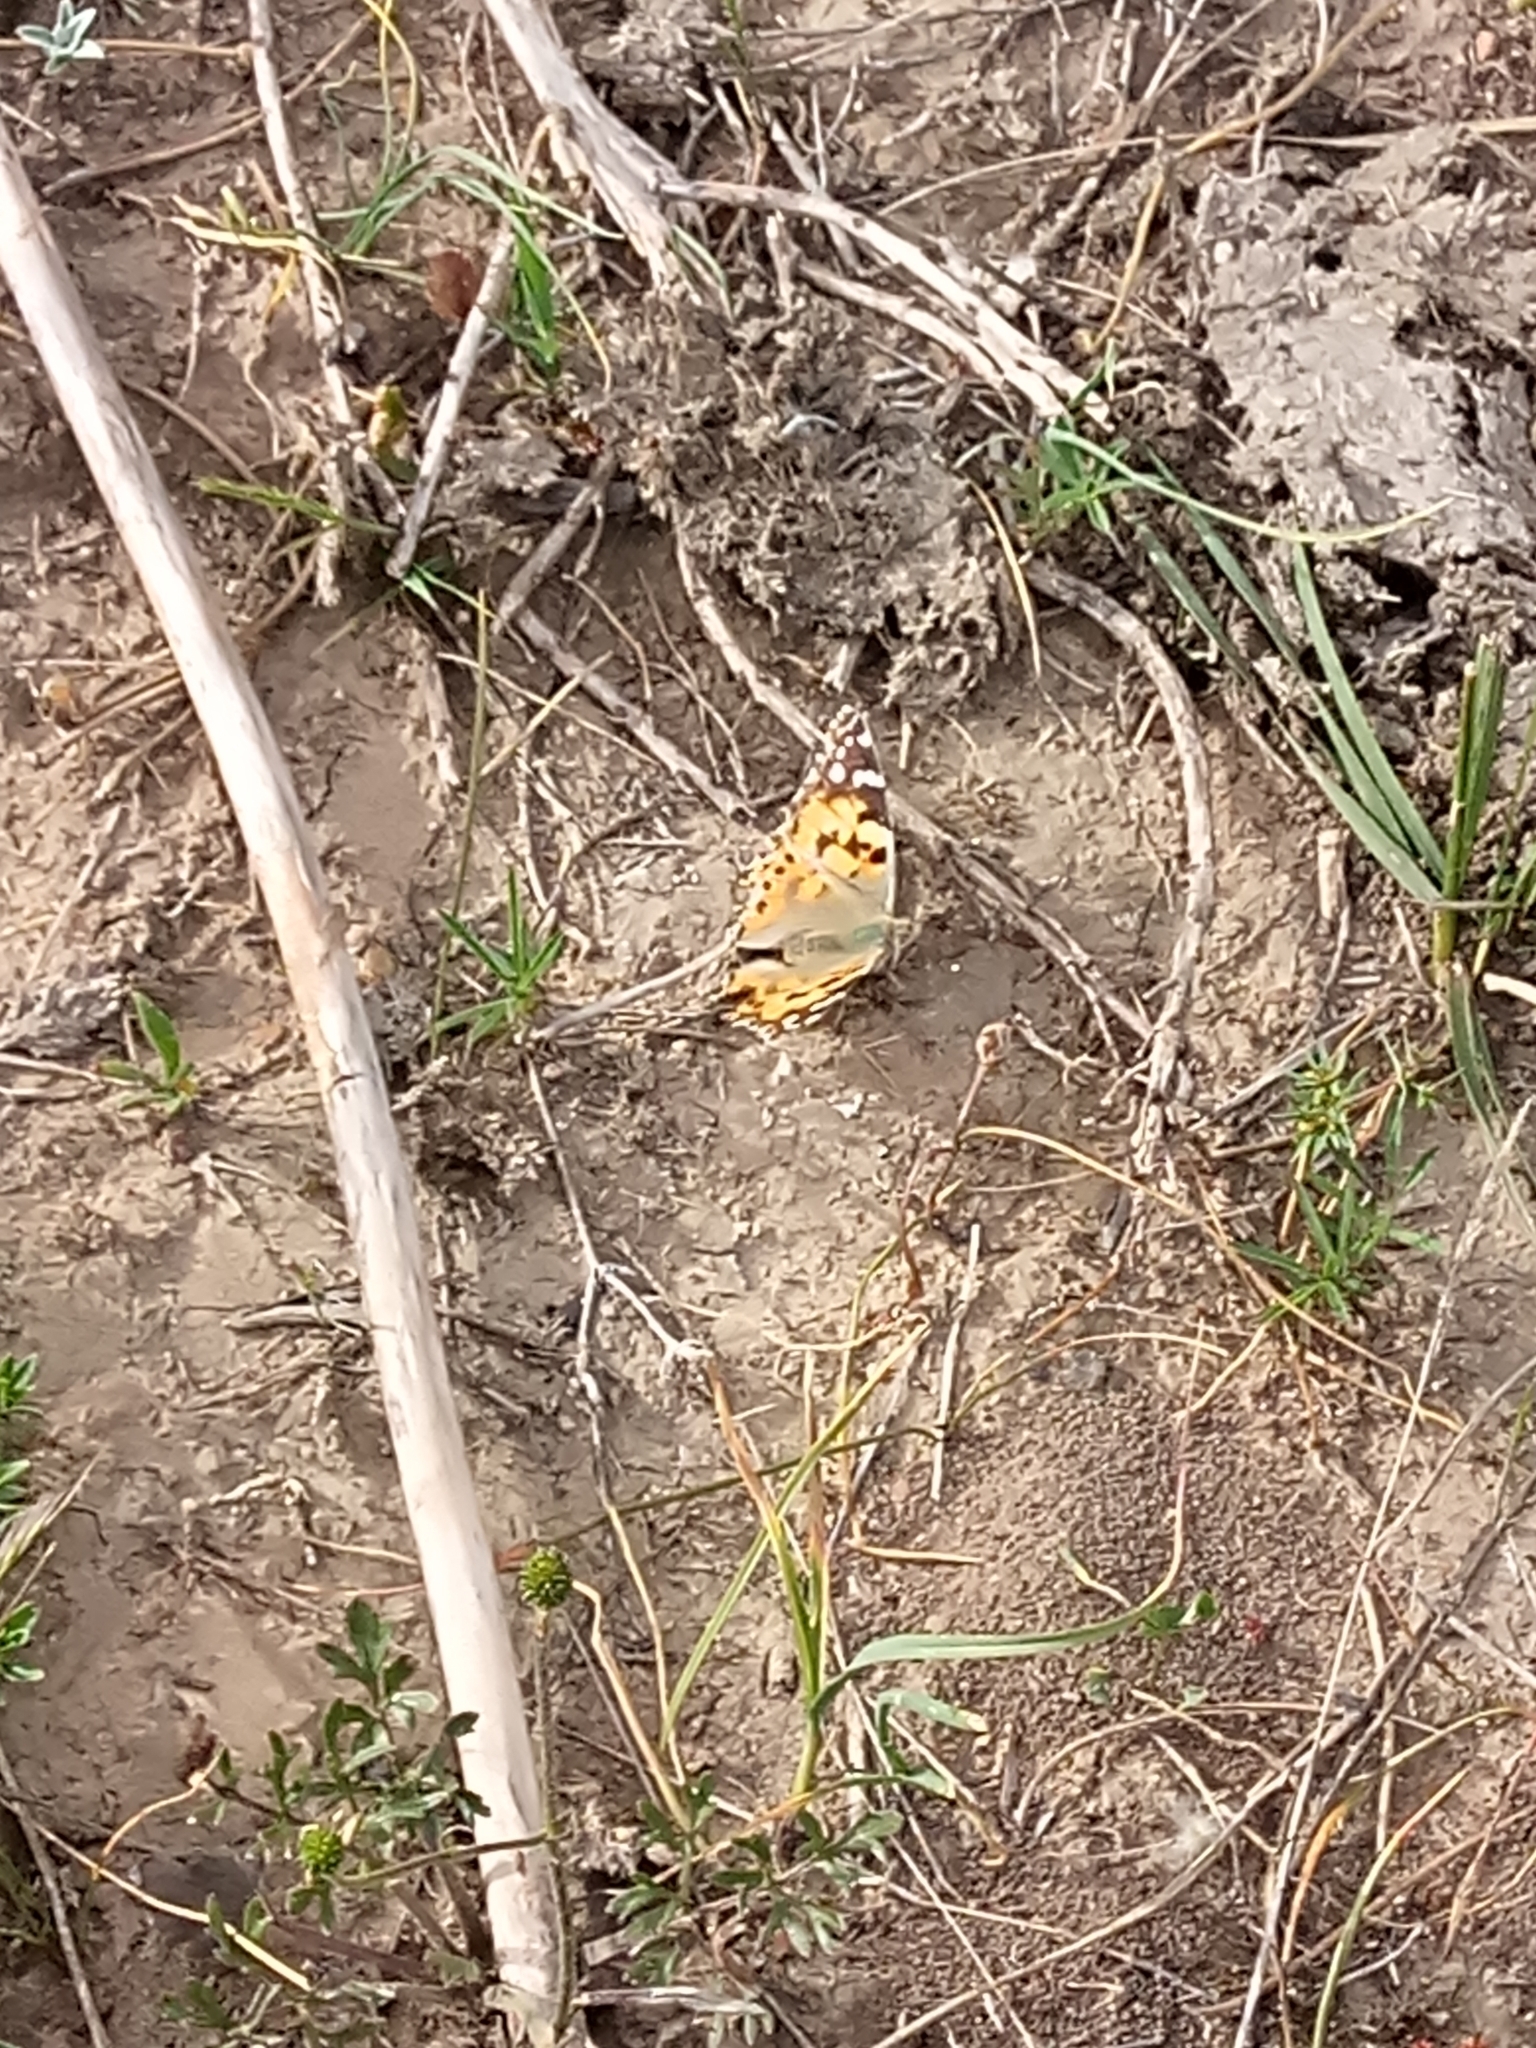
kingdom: Animalia
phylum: Arthropoda
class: Insecta
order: Lepidoptera
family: Nymphalidae
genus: Vanessa
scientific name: Vanessa cardui
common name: Painted lady
